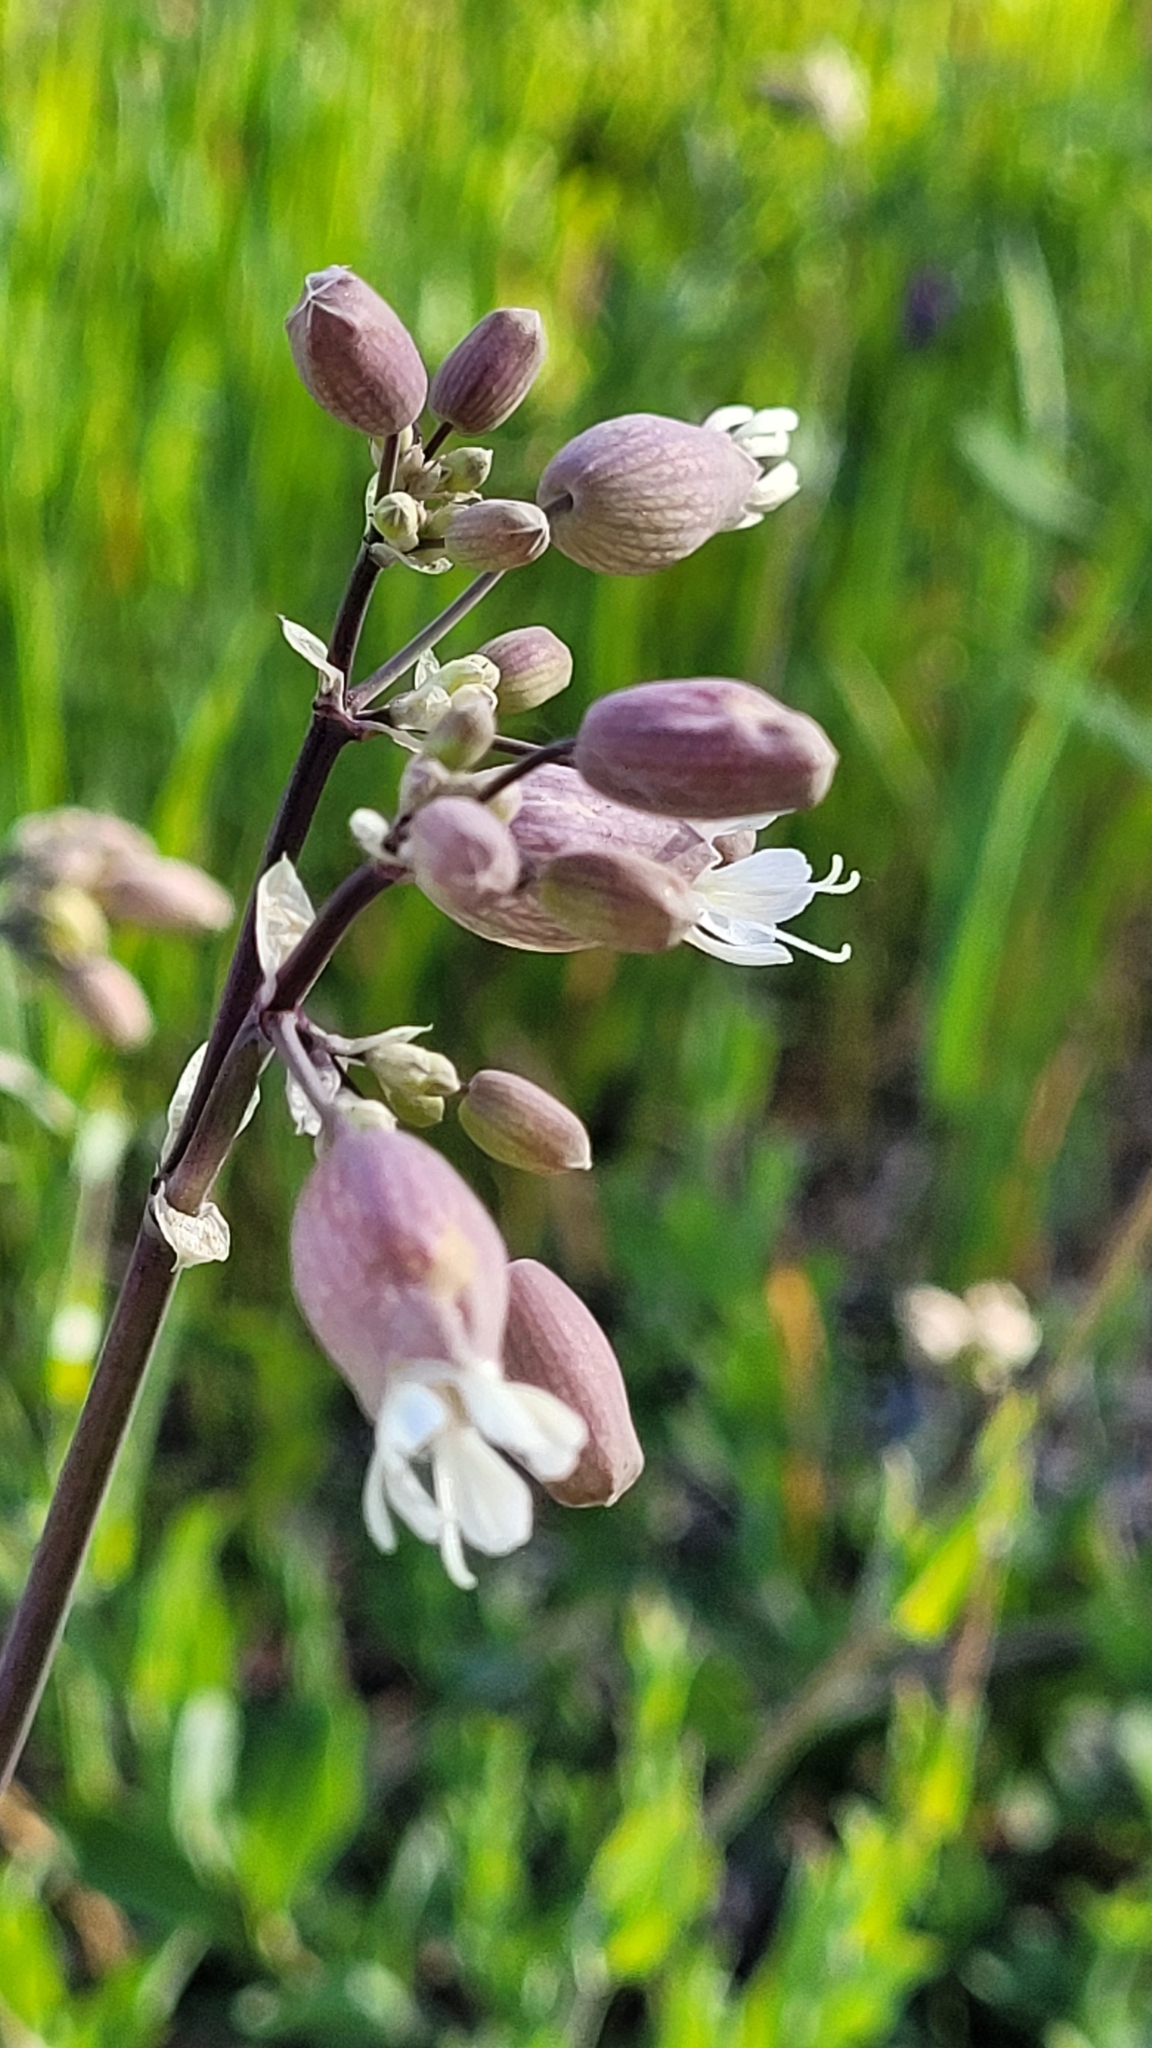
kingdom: Plantae
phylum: Tracheophyta
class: Magnoliopsida
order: Caryophyllales
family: Caryophyllaceae
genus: Silene
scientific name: Silene vulgaris
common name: Bladder campion
